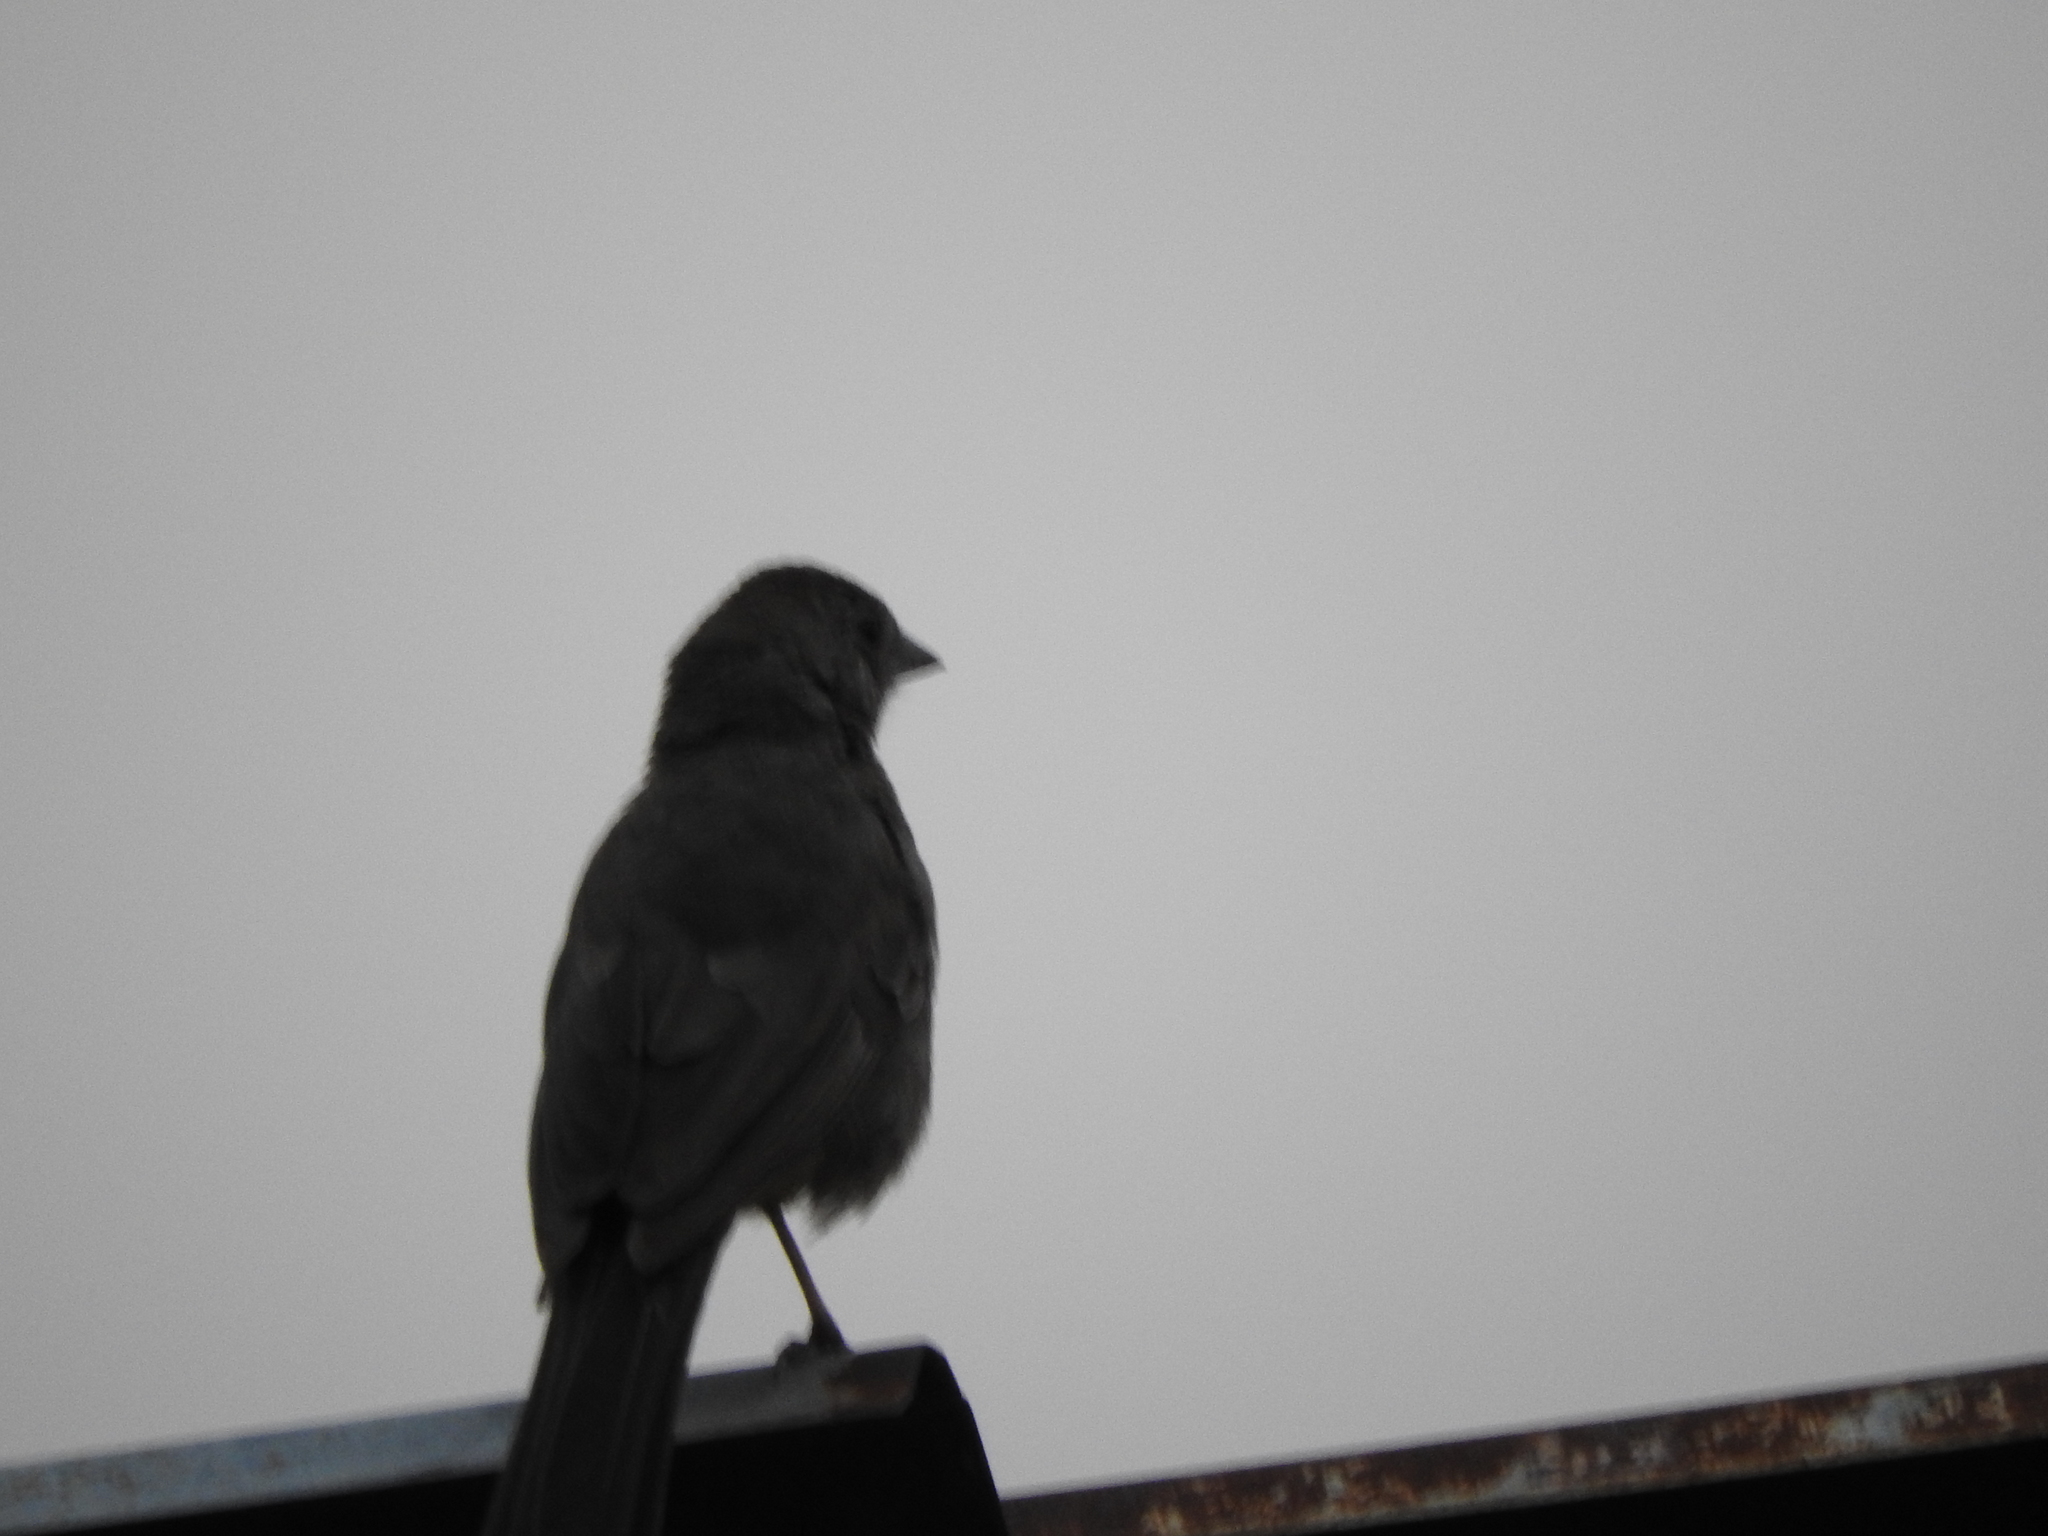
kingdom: Animalia
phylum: Chordata
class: Aves
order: Passeriformes
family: Passerellidae
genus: Melozone
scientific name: Melozone fusca
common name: Canyon towhee
